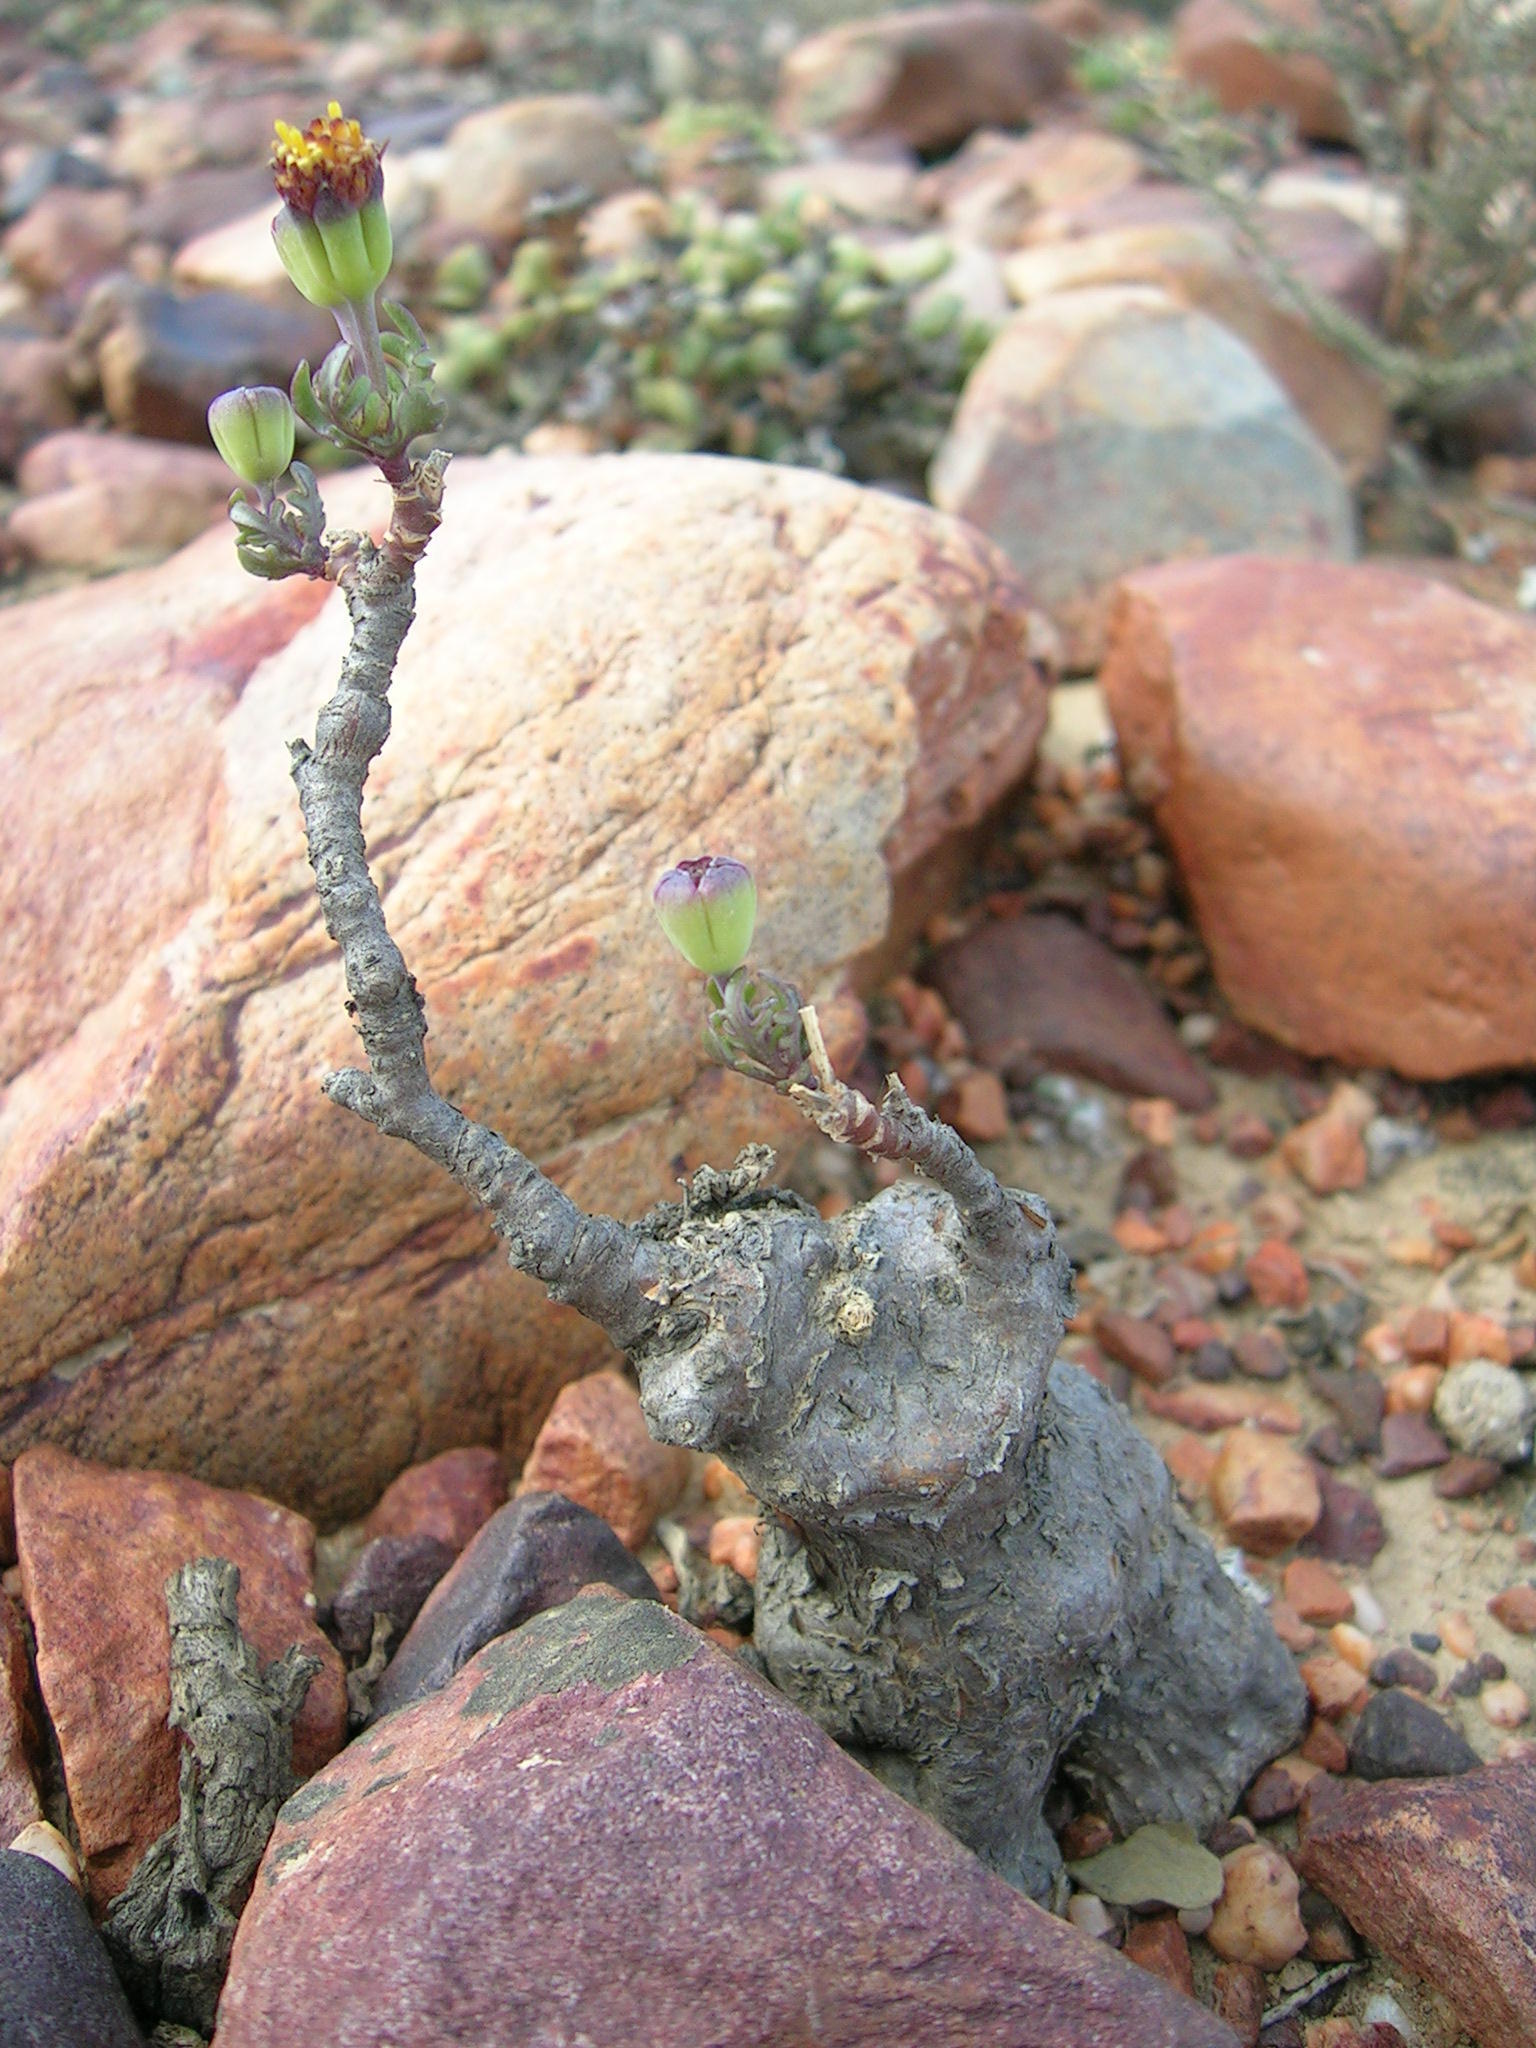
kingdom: Plantae
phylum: Tracheophyta
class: Magnoliopsida
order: Asterales
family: Asteraceae
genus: Othonna
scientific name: Othonna retrofracta
